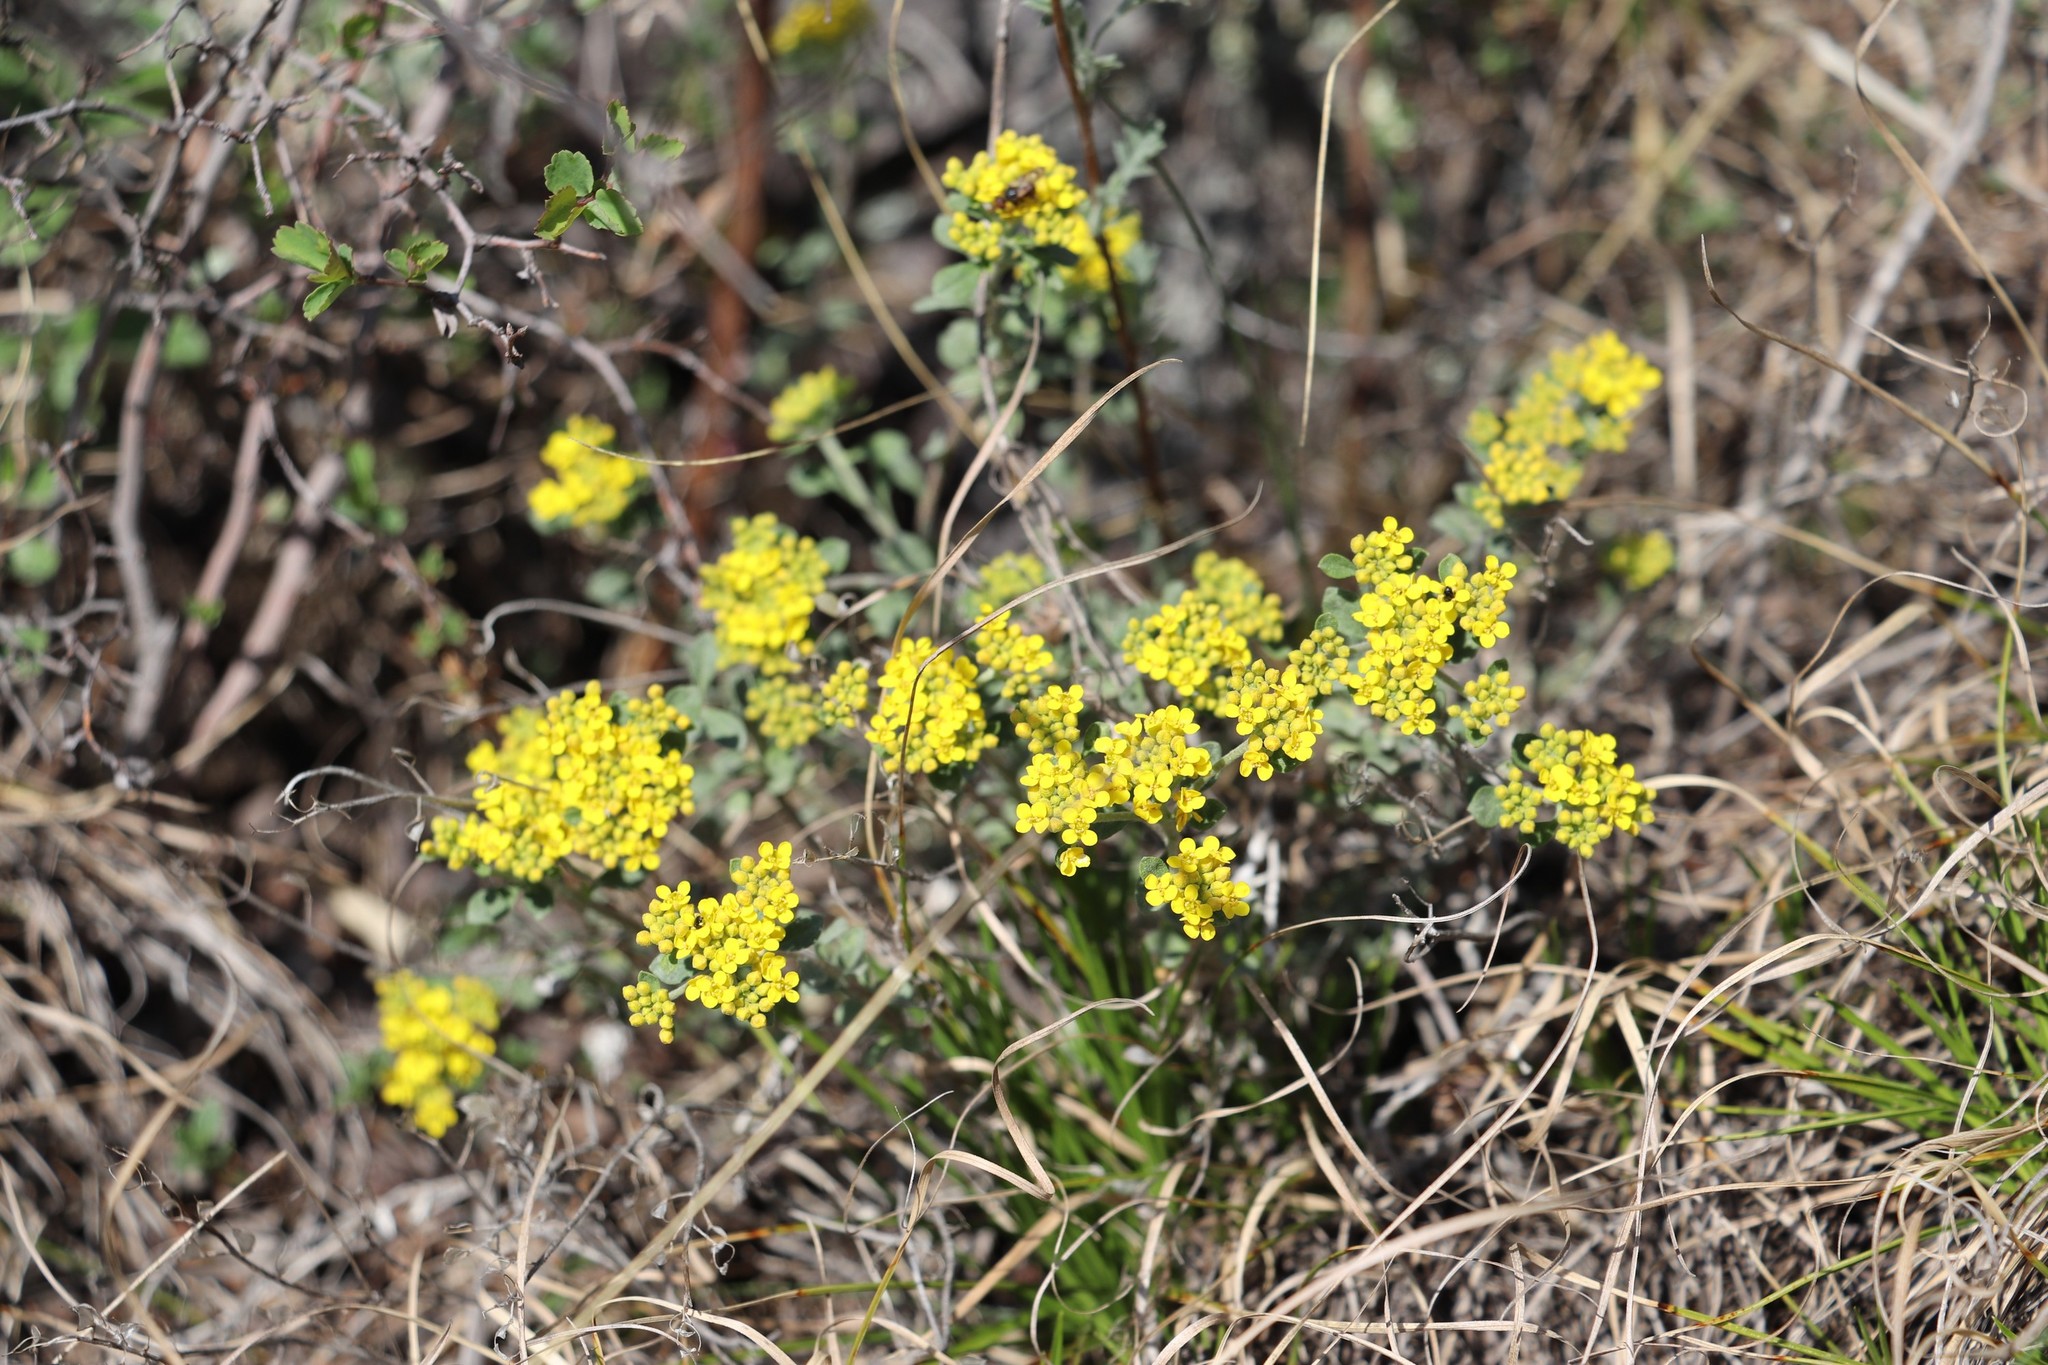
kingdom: Plantae
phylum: Tracheophyta
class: Magnoliopsida
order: Brassicales
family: Brassicaceae
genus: Odontarrhena
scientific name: Odontarrhena obovata
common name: American alyssum
